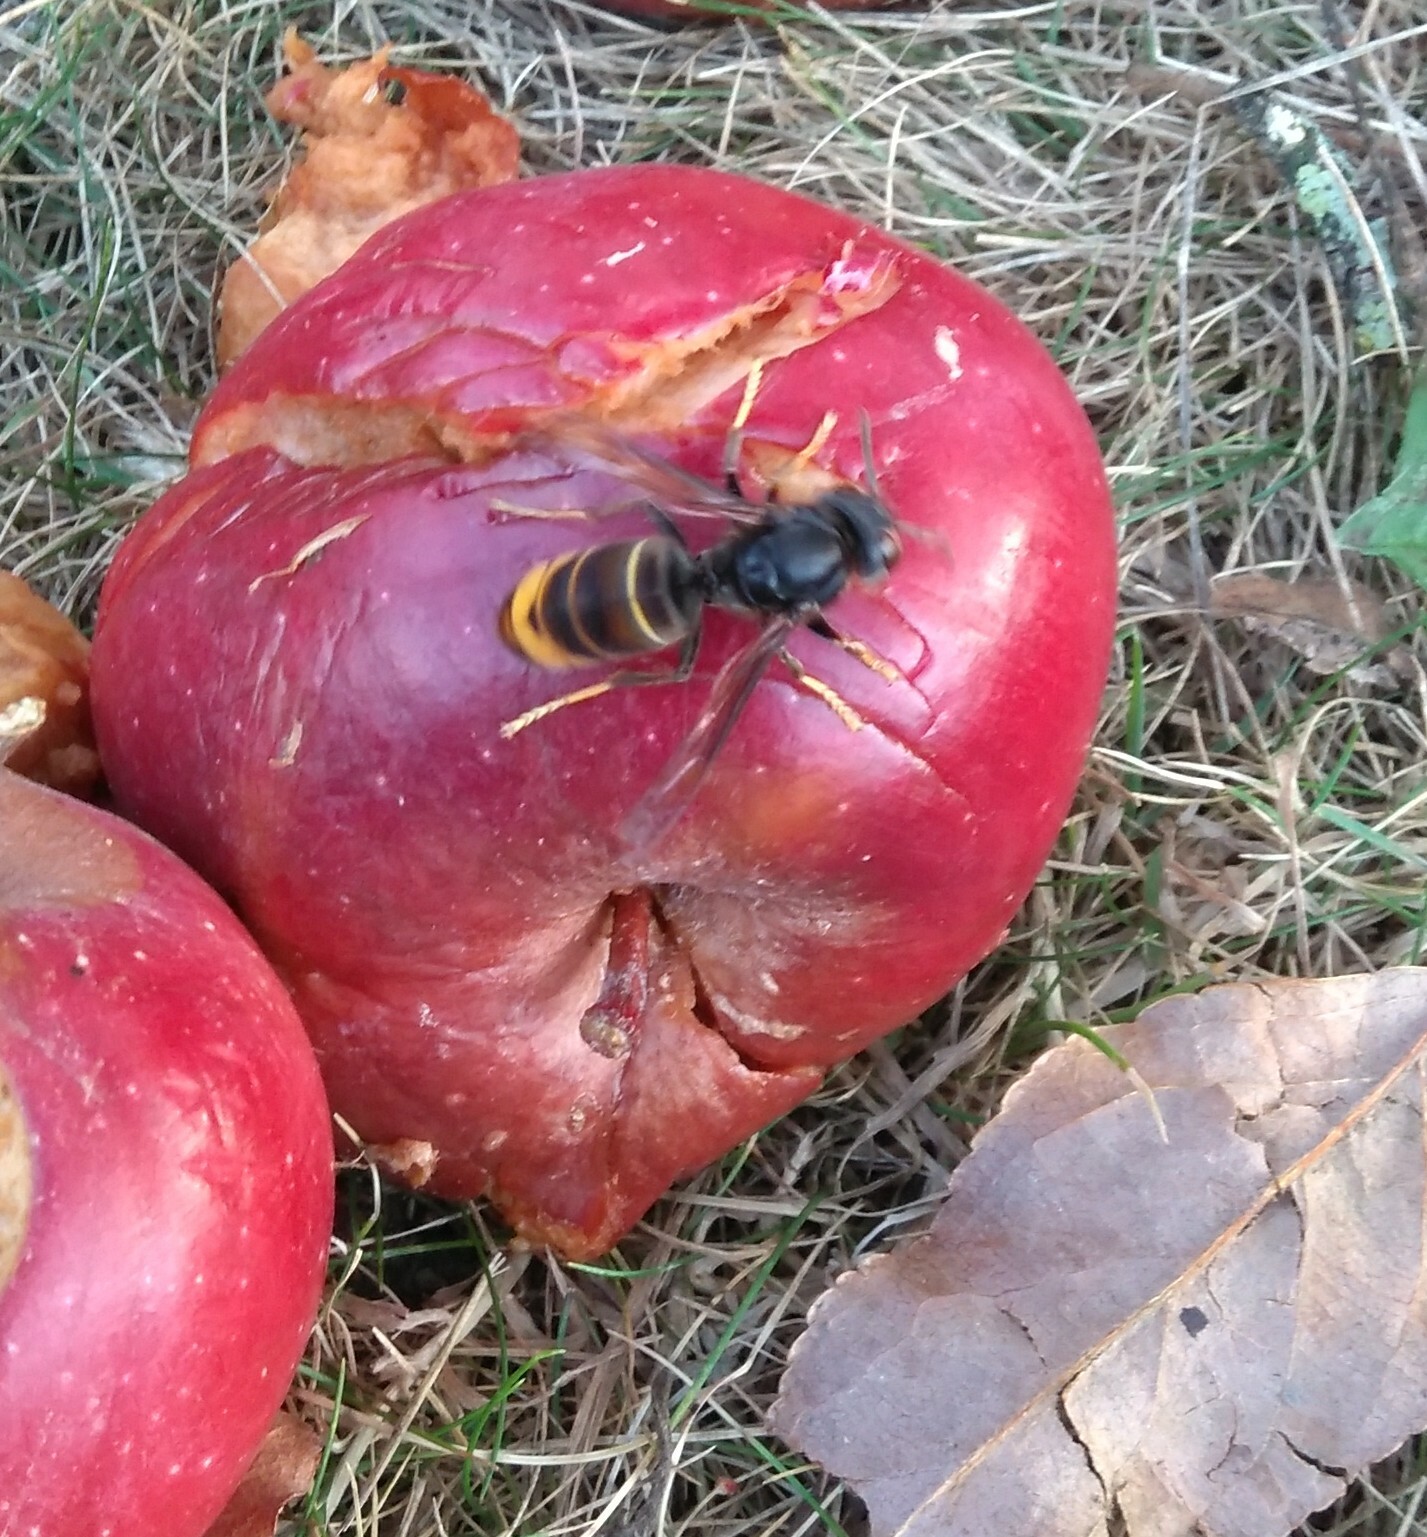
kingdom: Animalia
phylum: Arthropoda
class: Insecta
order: Hymenoptera
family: Vespidae
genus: Vespa
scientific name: Vespa velutina
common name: Asian hornet
